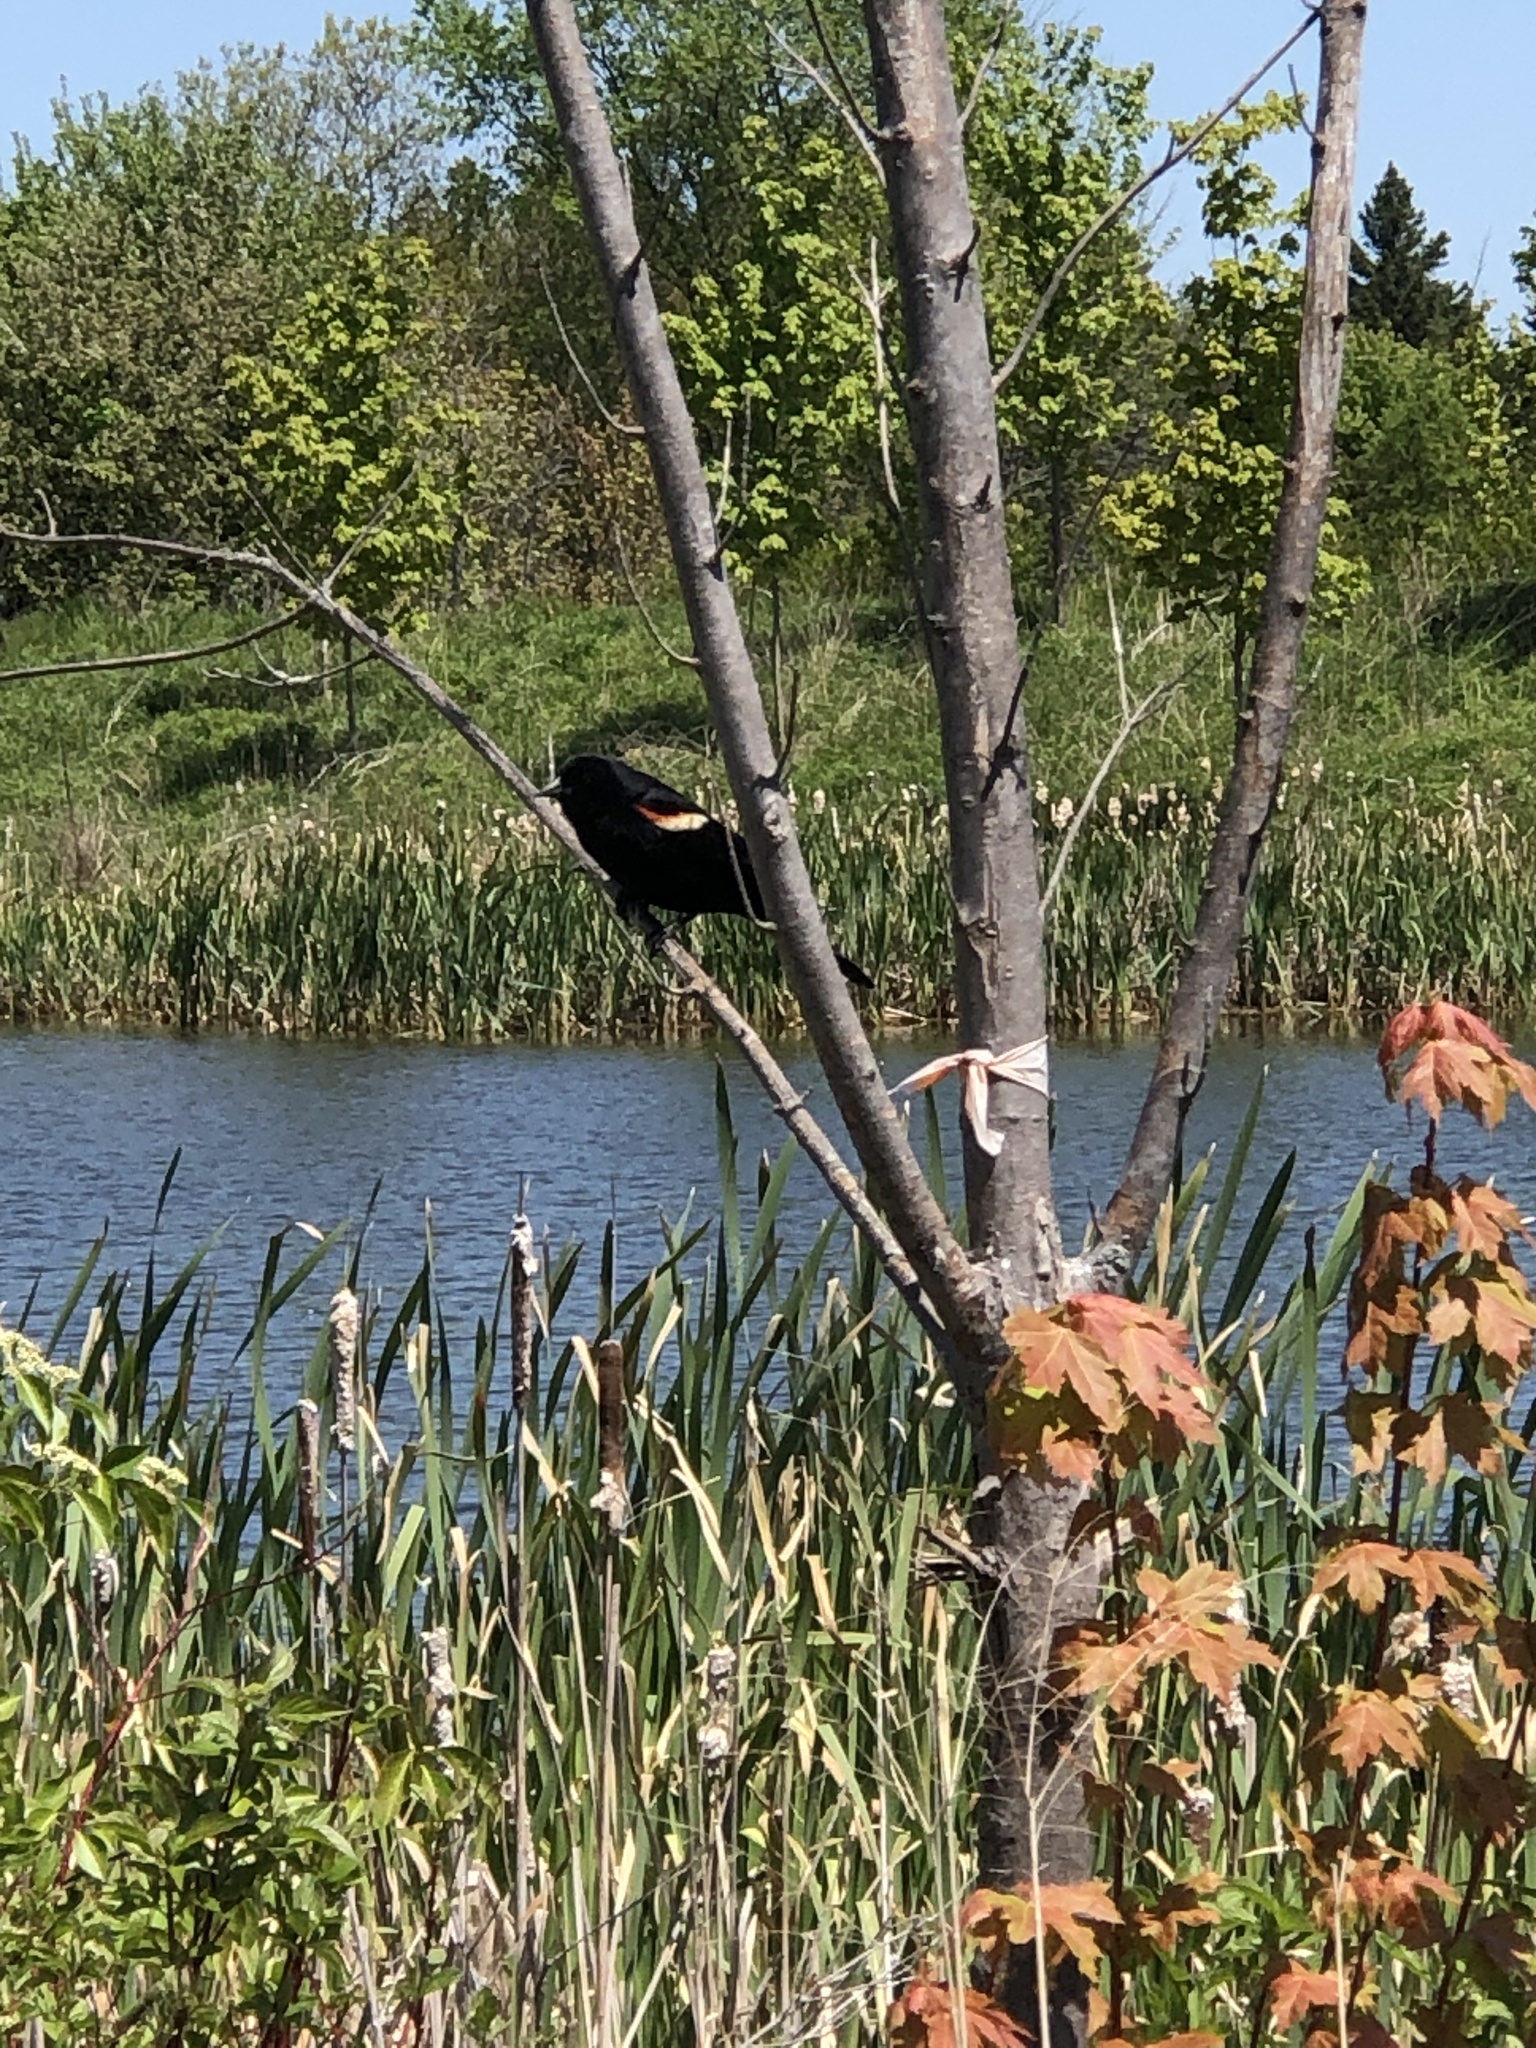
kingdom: Animalia
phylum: Chordata
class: Aves
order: Passeriformes
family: Icteridae
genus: Agelaius
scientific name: Agelaius phoeniceus
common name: Red-winged blackbird
